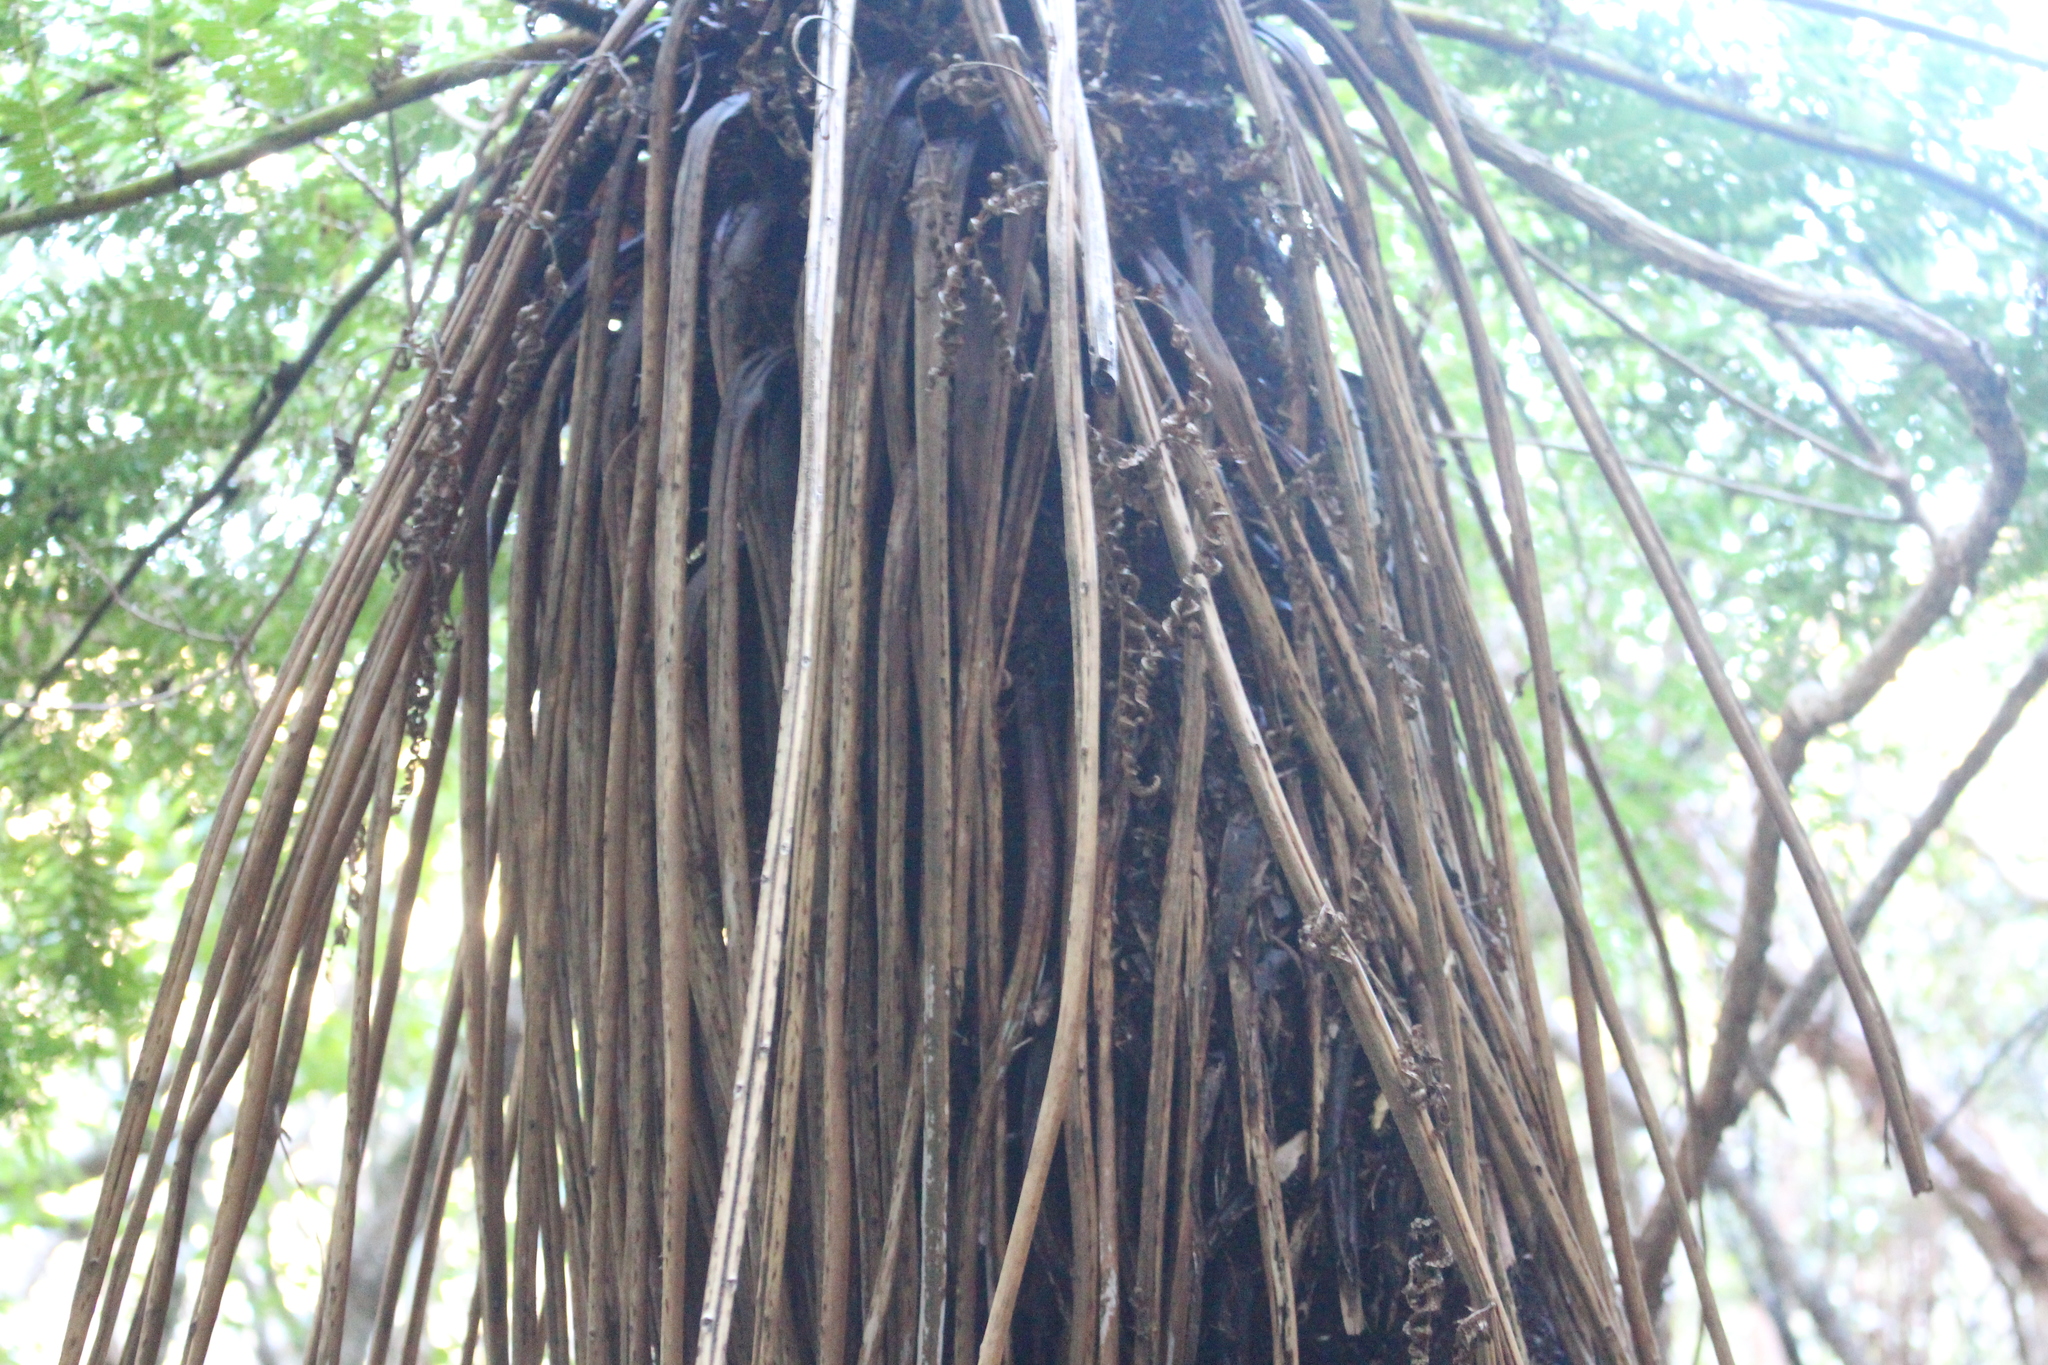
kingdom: Plantae
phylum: Tracheophyta
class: Polypodiopsida
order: Cyatheales
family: Cyatheaceae
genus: Alsophila
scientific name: Alsophila smithii
